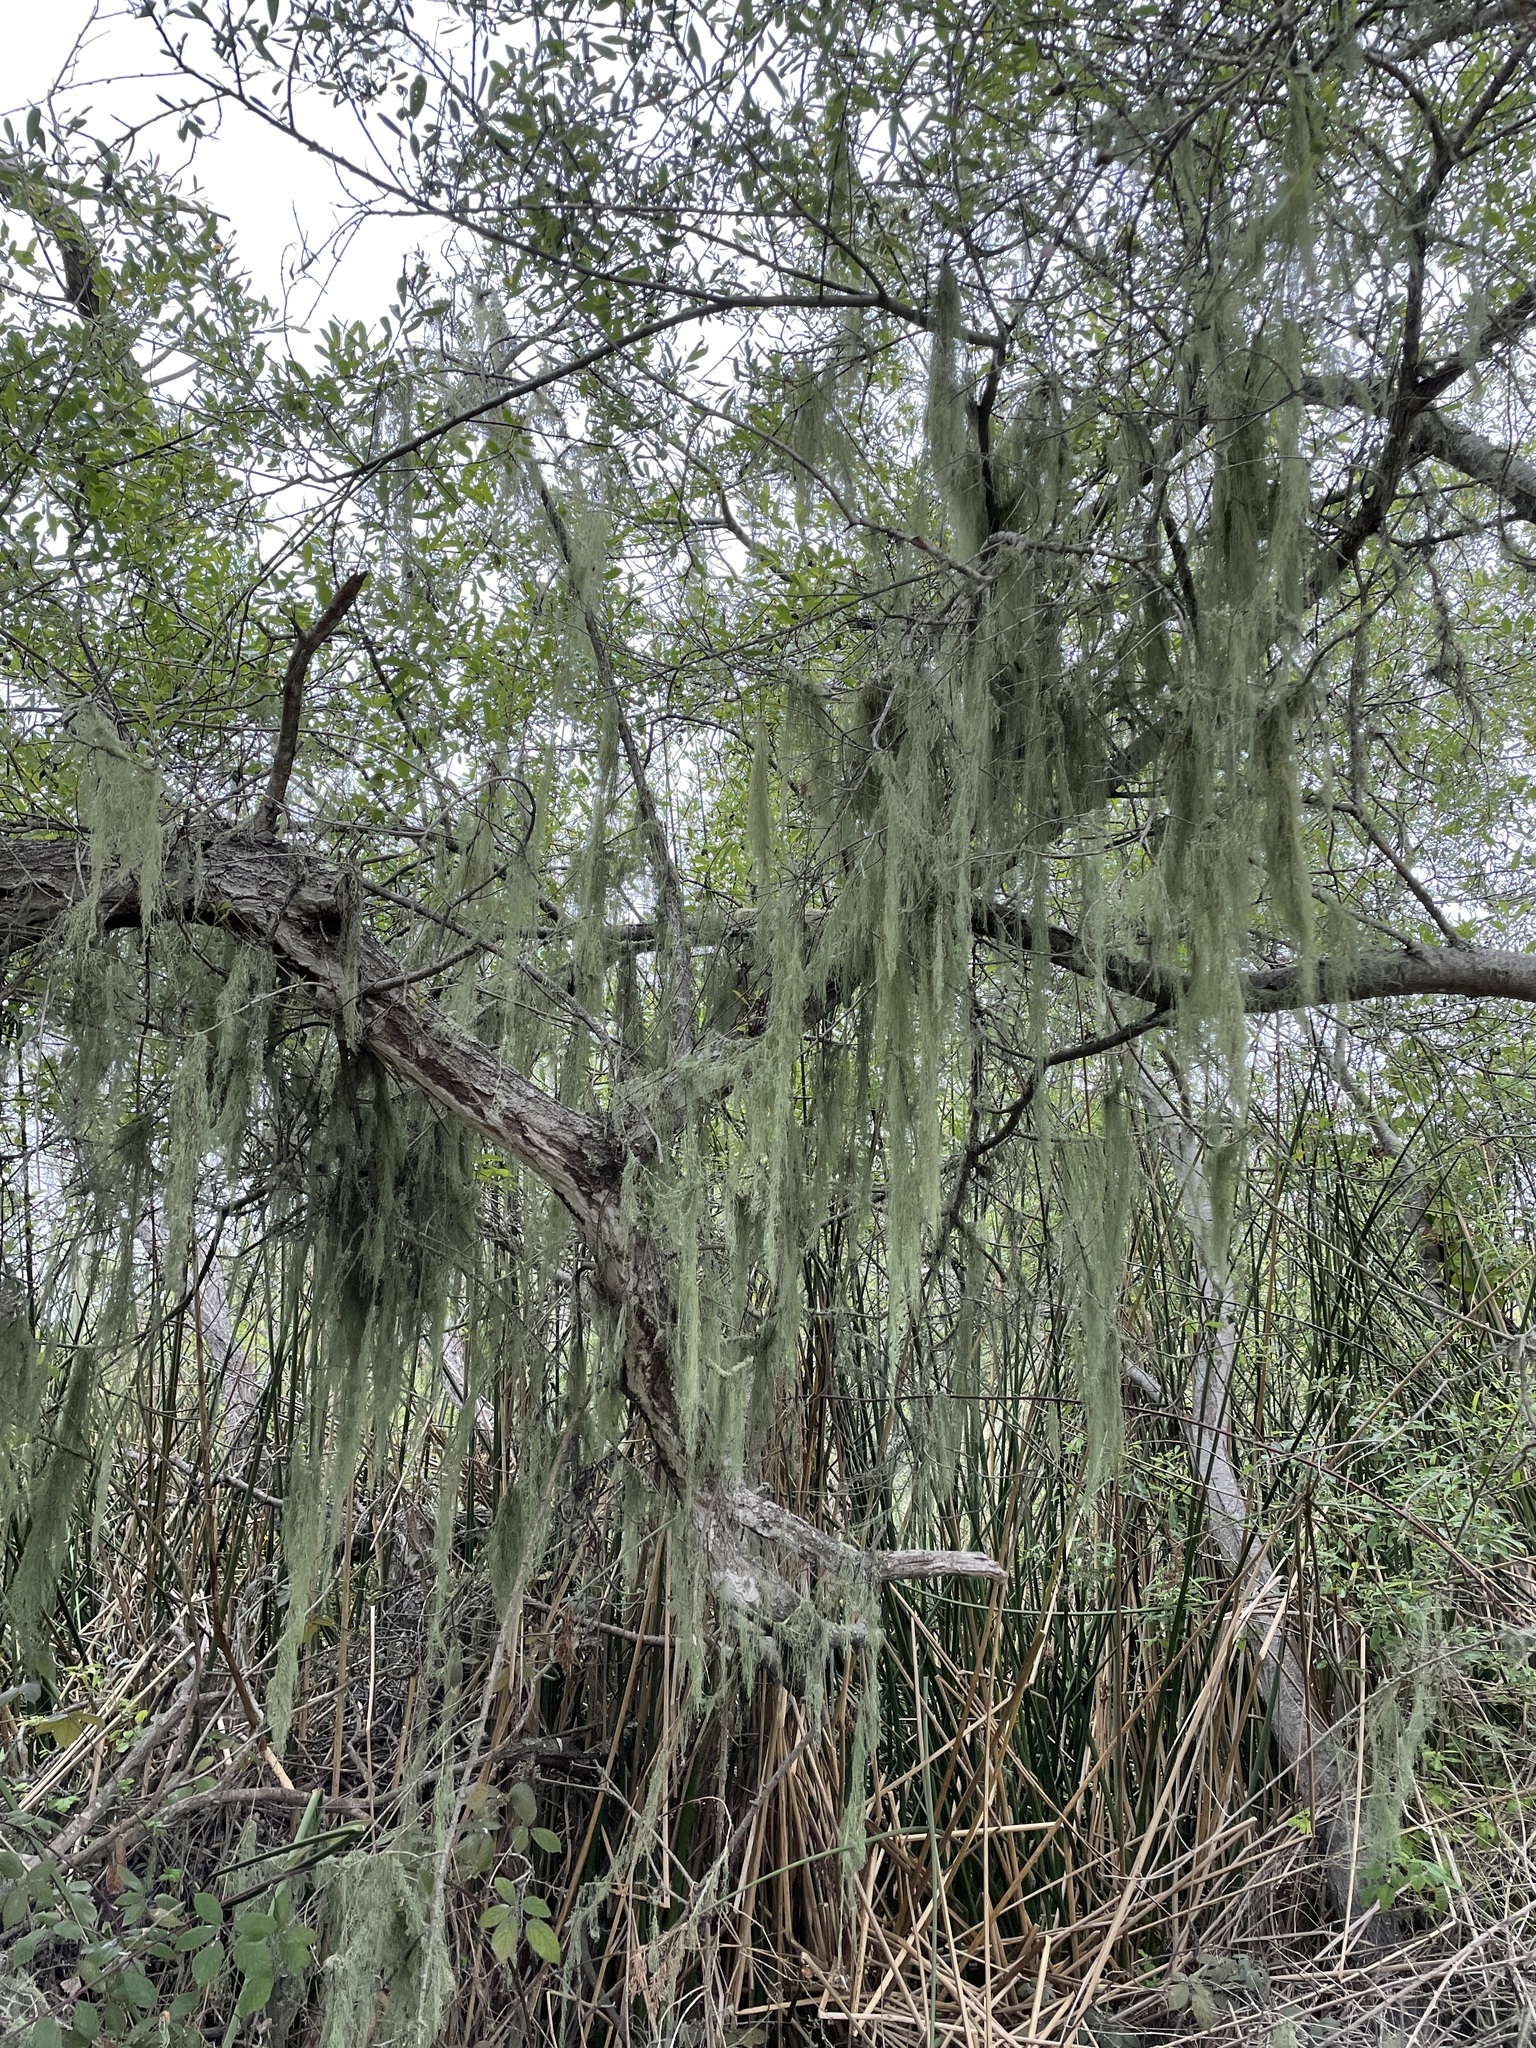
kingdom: Fungi
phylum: Ascomycota
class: Lecanoromycetes
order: Lecanorales
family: Ramalinaceae
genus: Ramalina
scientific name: Ramalina menziesii
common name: Lace lichen
